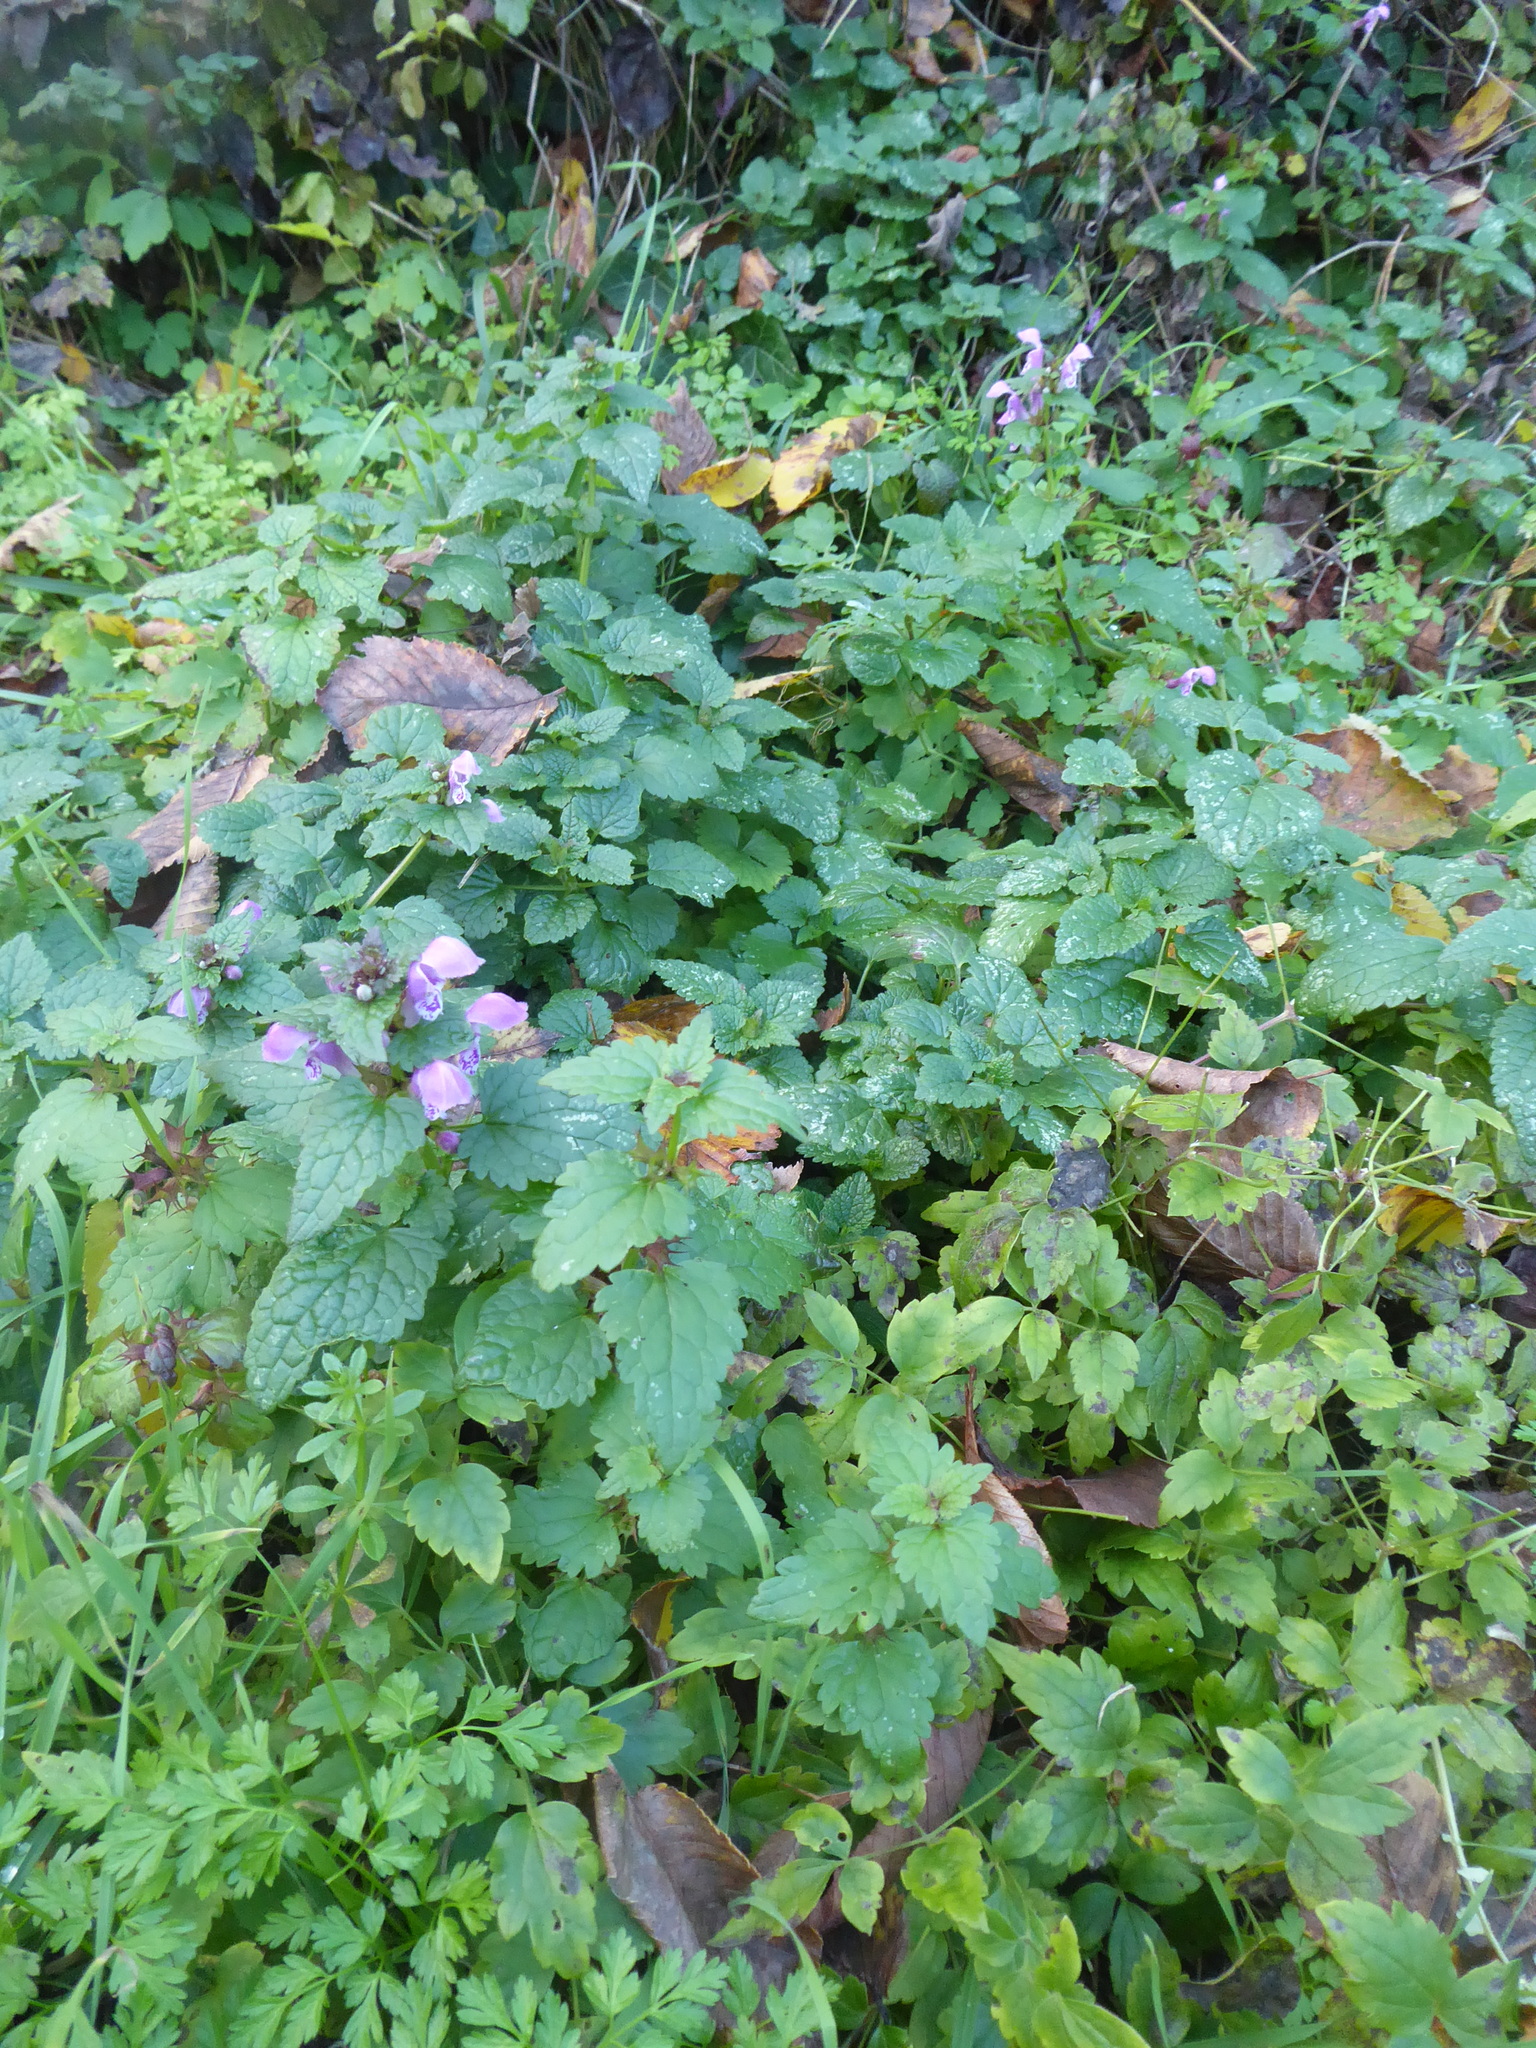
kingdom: Plantae
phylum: Tracheophyta
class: Magnoliopsida
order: Lamiales
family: Lamiaceae
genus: Lamium
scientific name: Lamium maculatum
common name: Spotted dead-nettle
